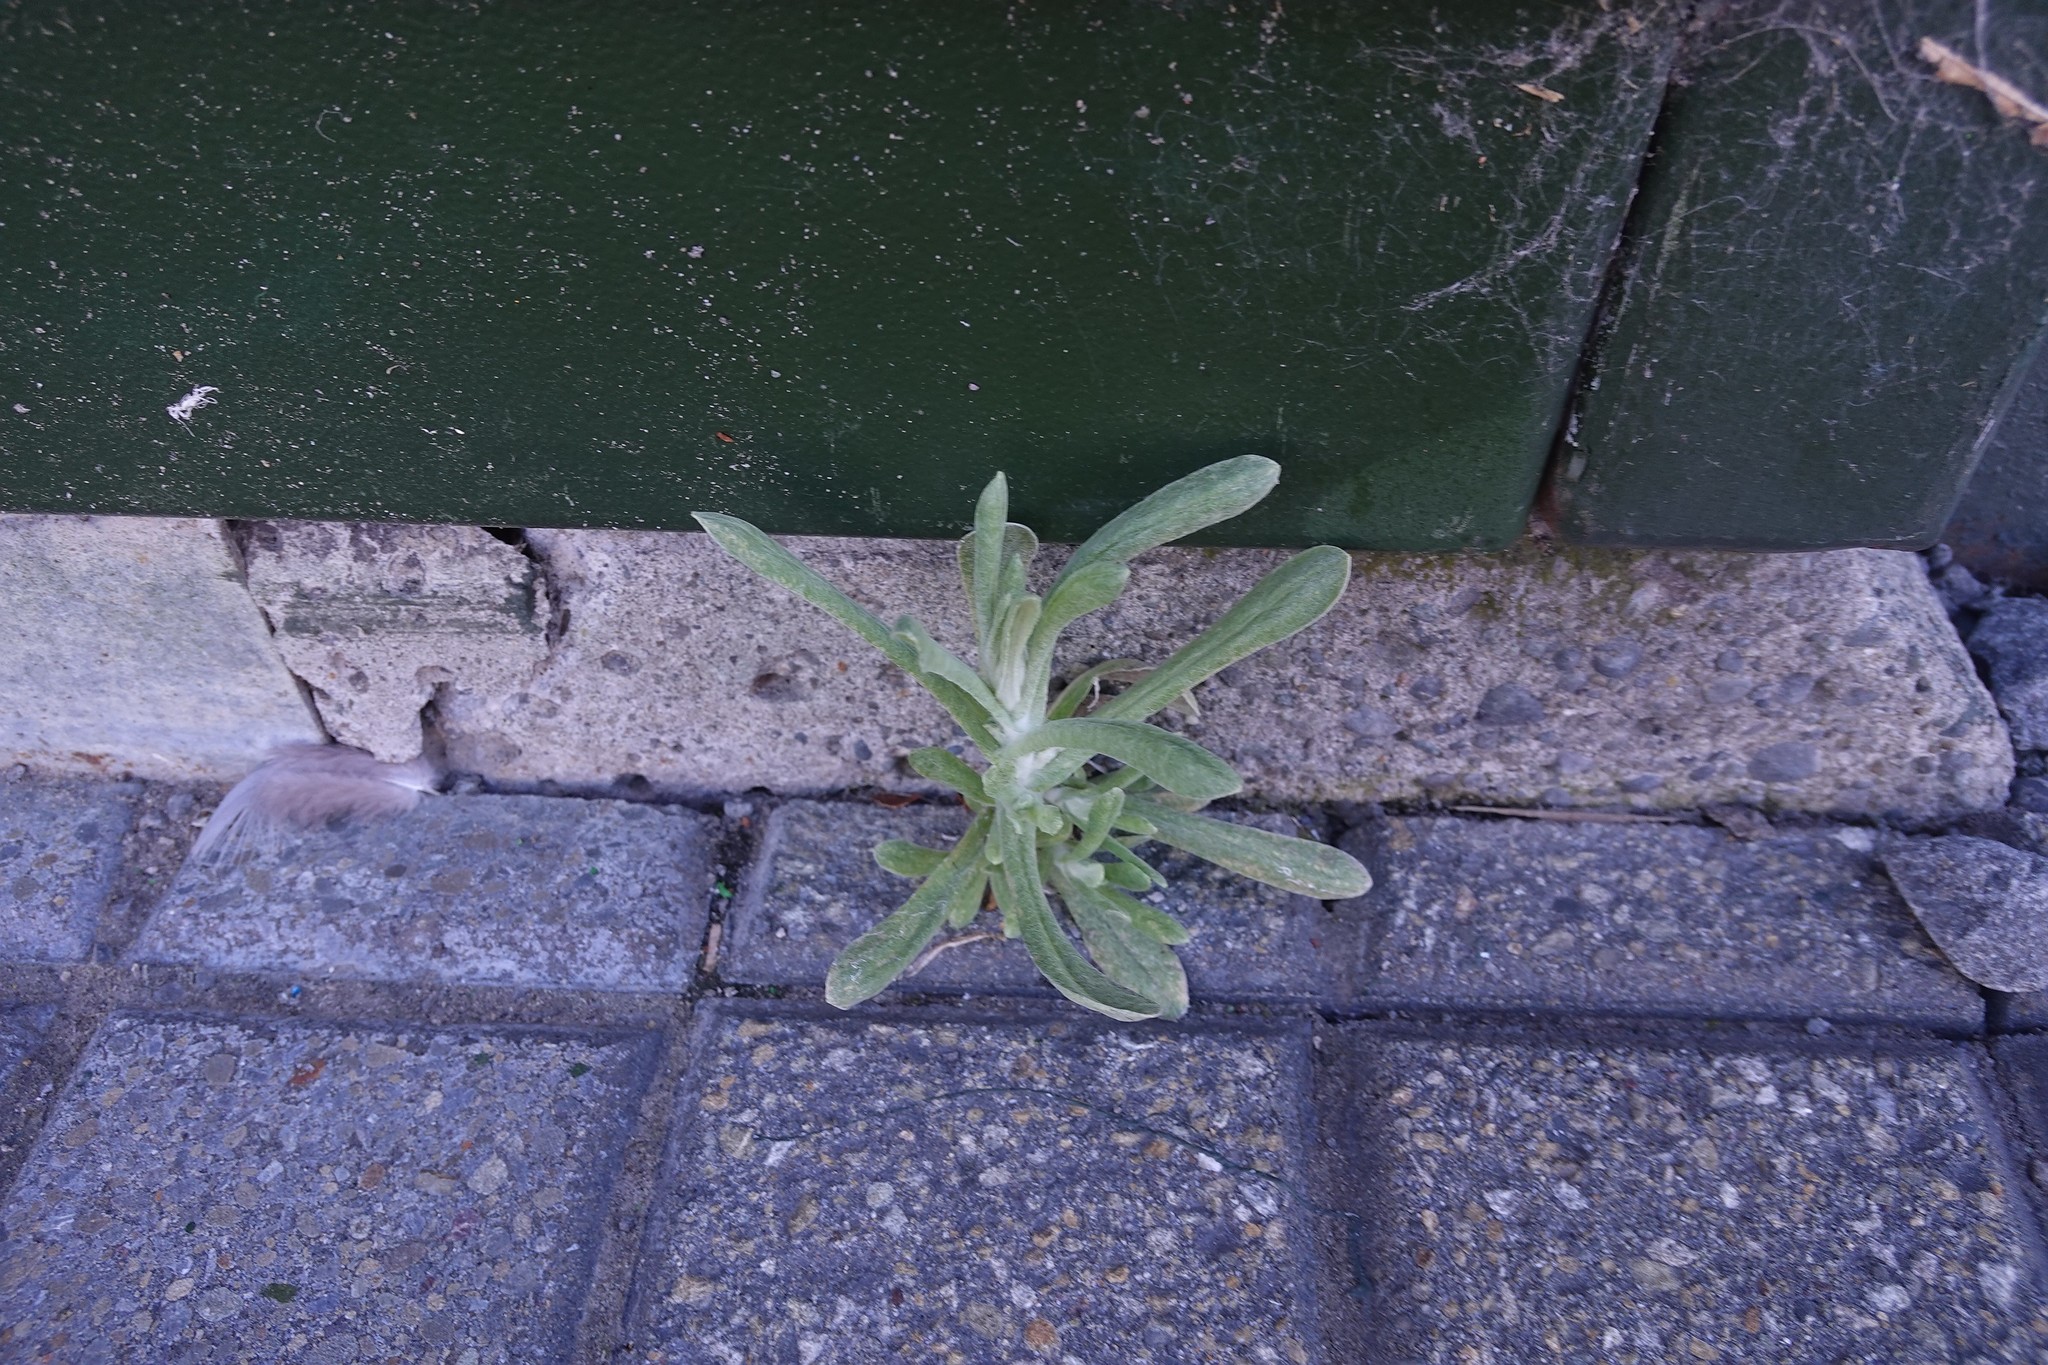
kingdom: Plantae
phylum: Tracheophyta
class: Magnoliopsida
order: Asterales
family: Asteraceae
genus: Helichrysum
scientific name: Helichrysum luteoalbum
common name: Daisy
